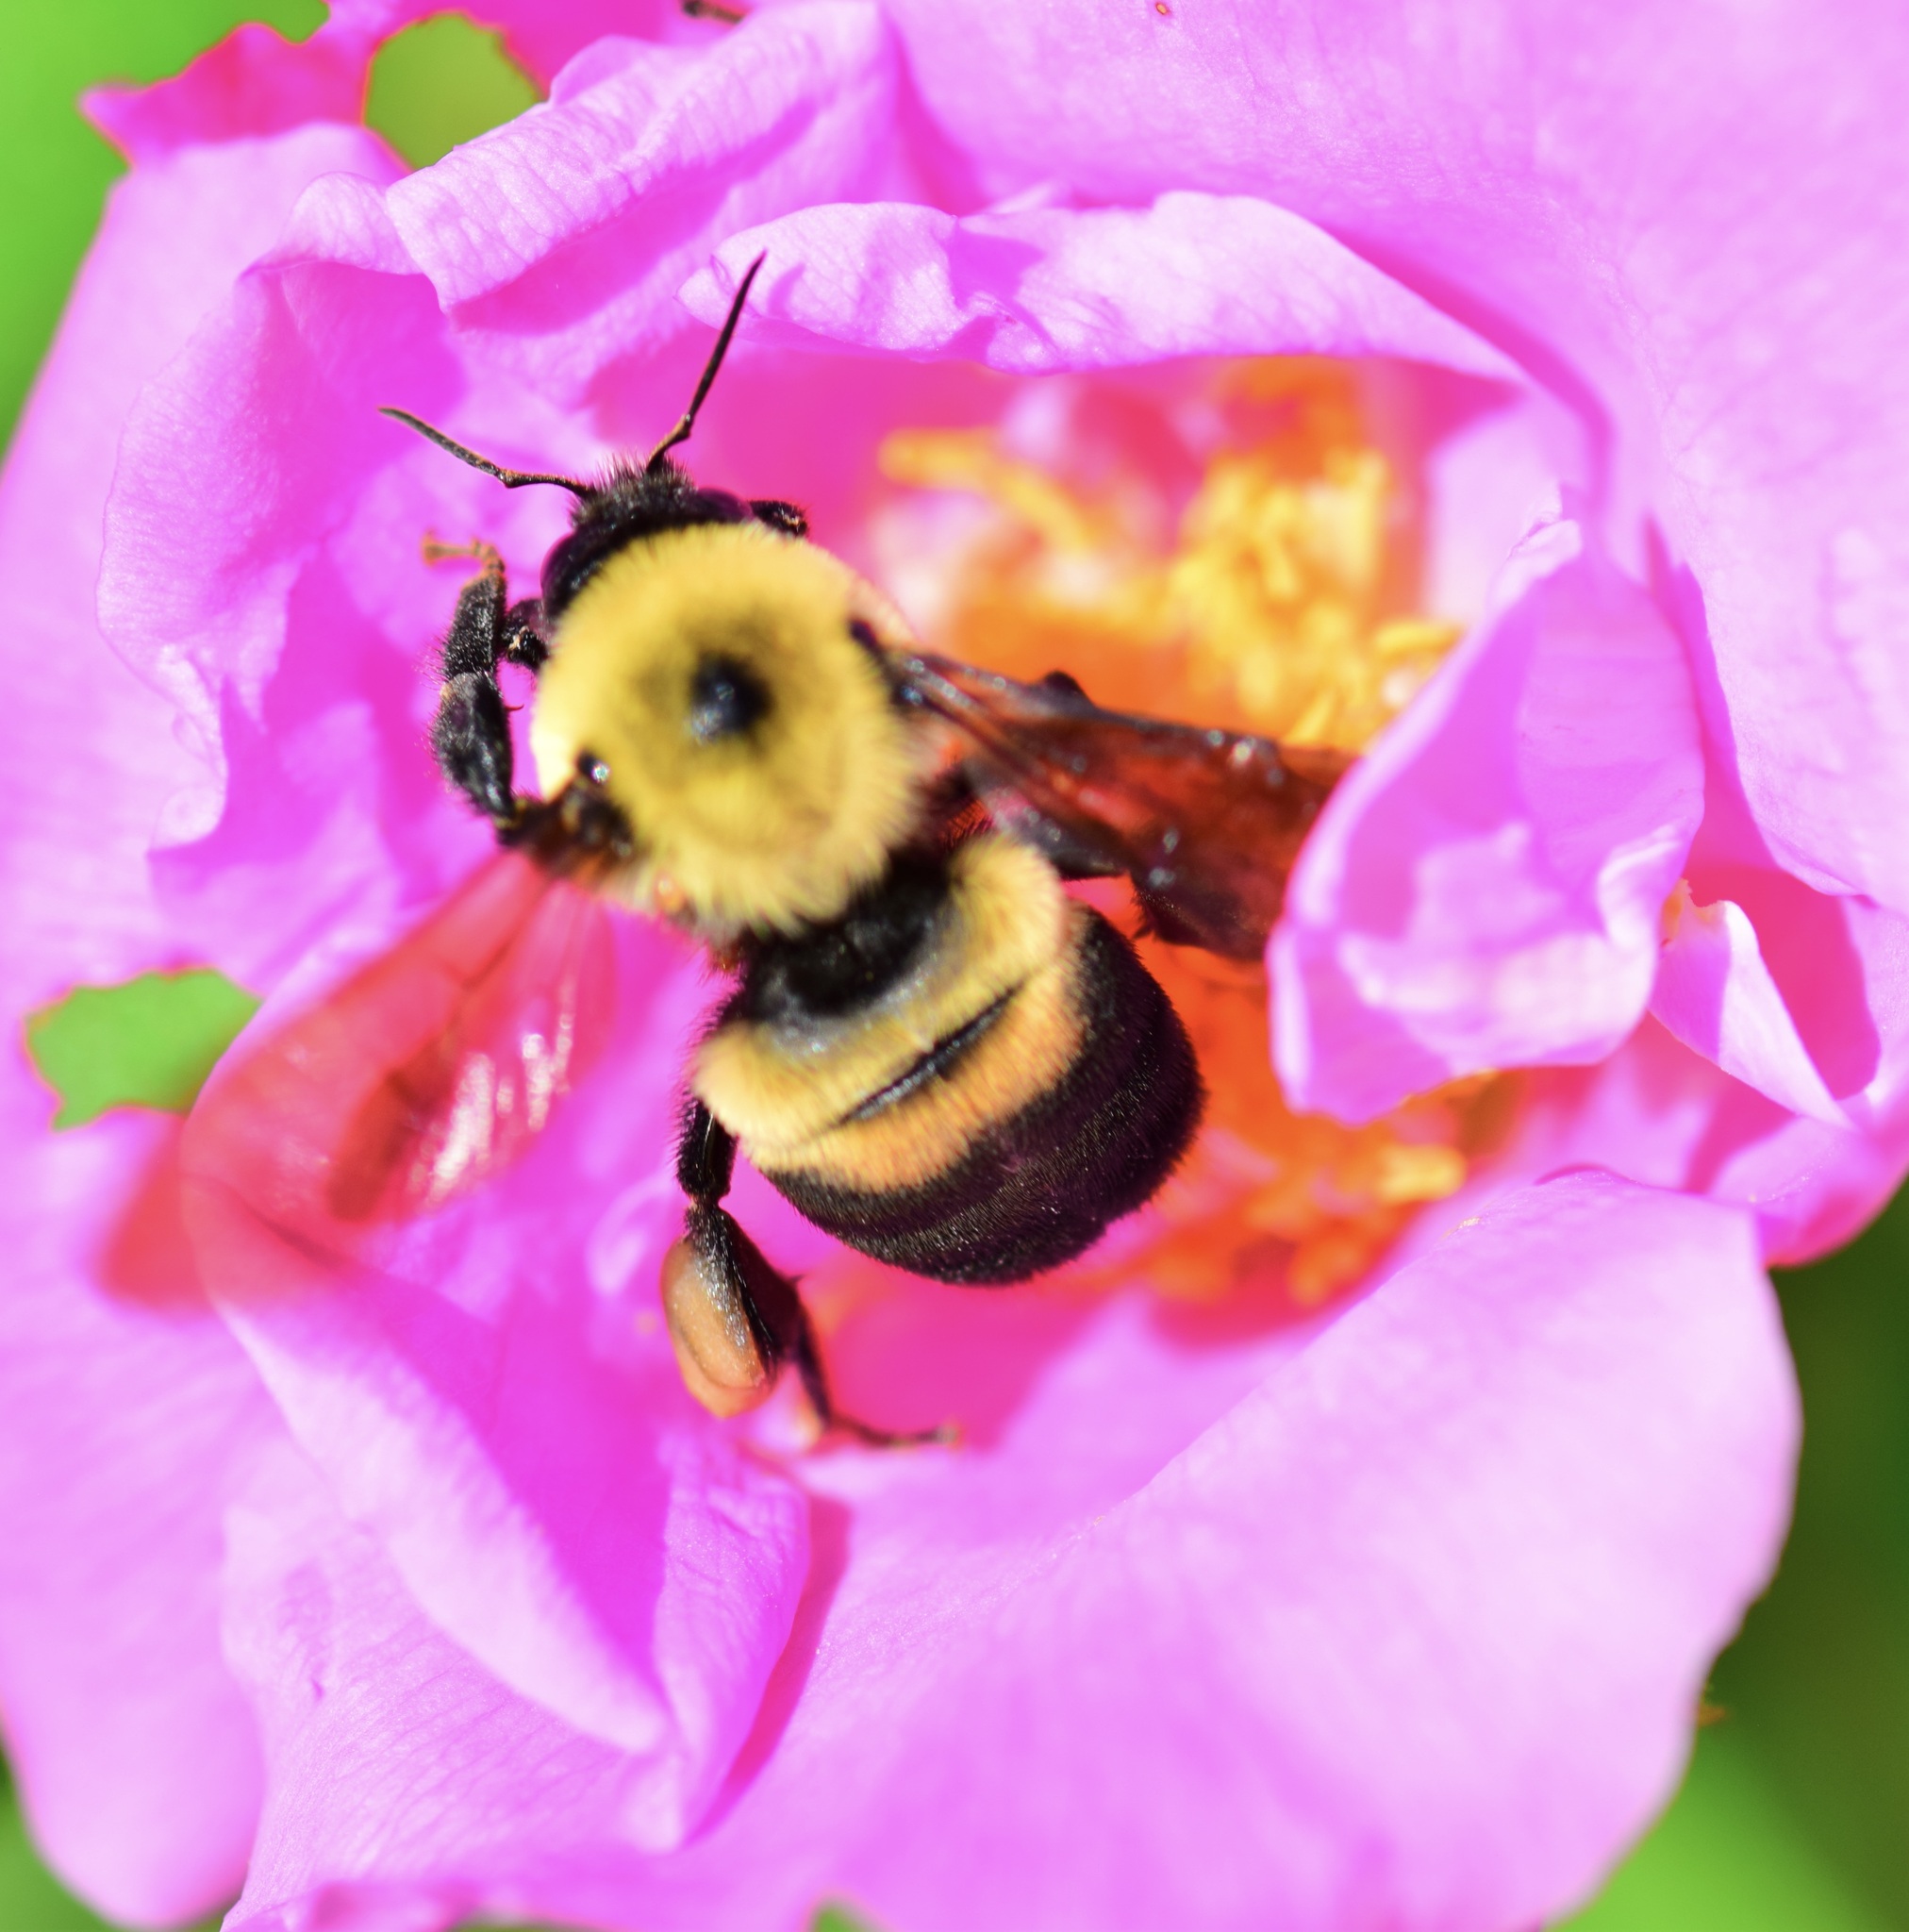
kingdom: Animalia
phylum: Arthropoda
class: Insecta
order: Hymenoptera
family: Apidae
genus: Bombus
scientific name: Bombus griseocollis
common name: Brown-belted bumble bee
